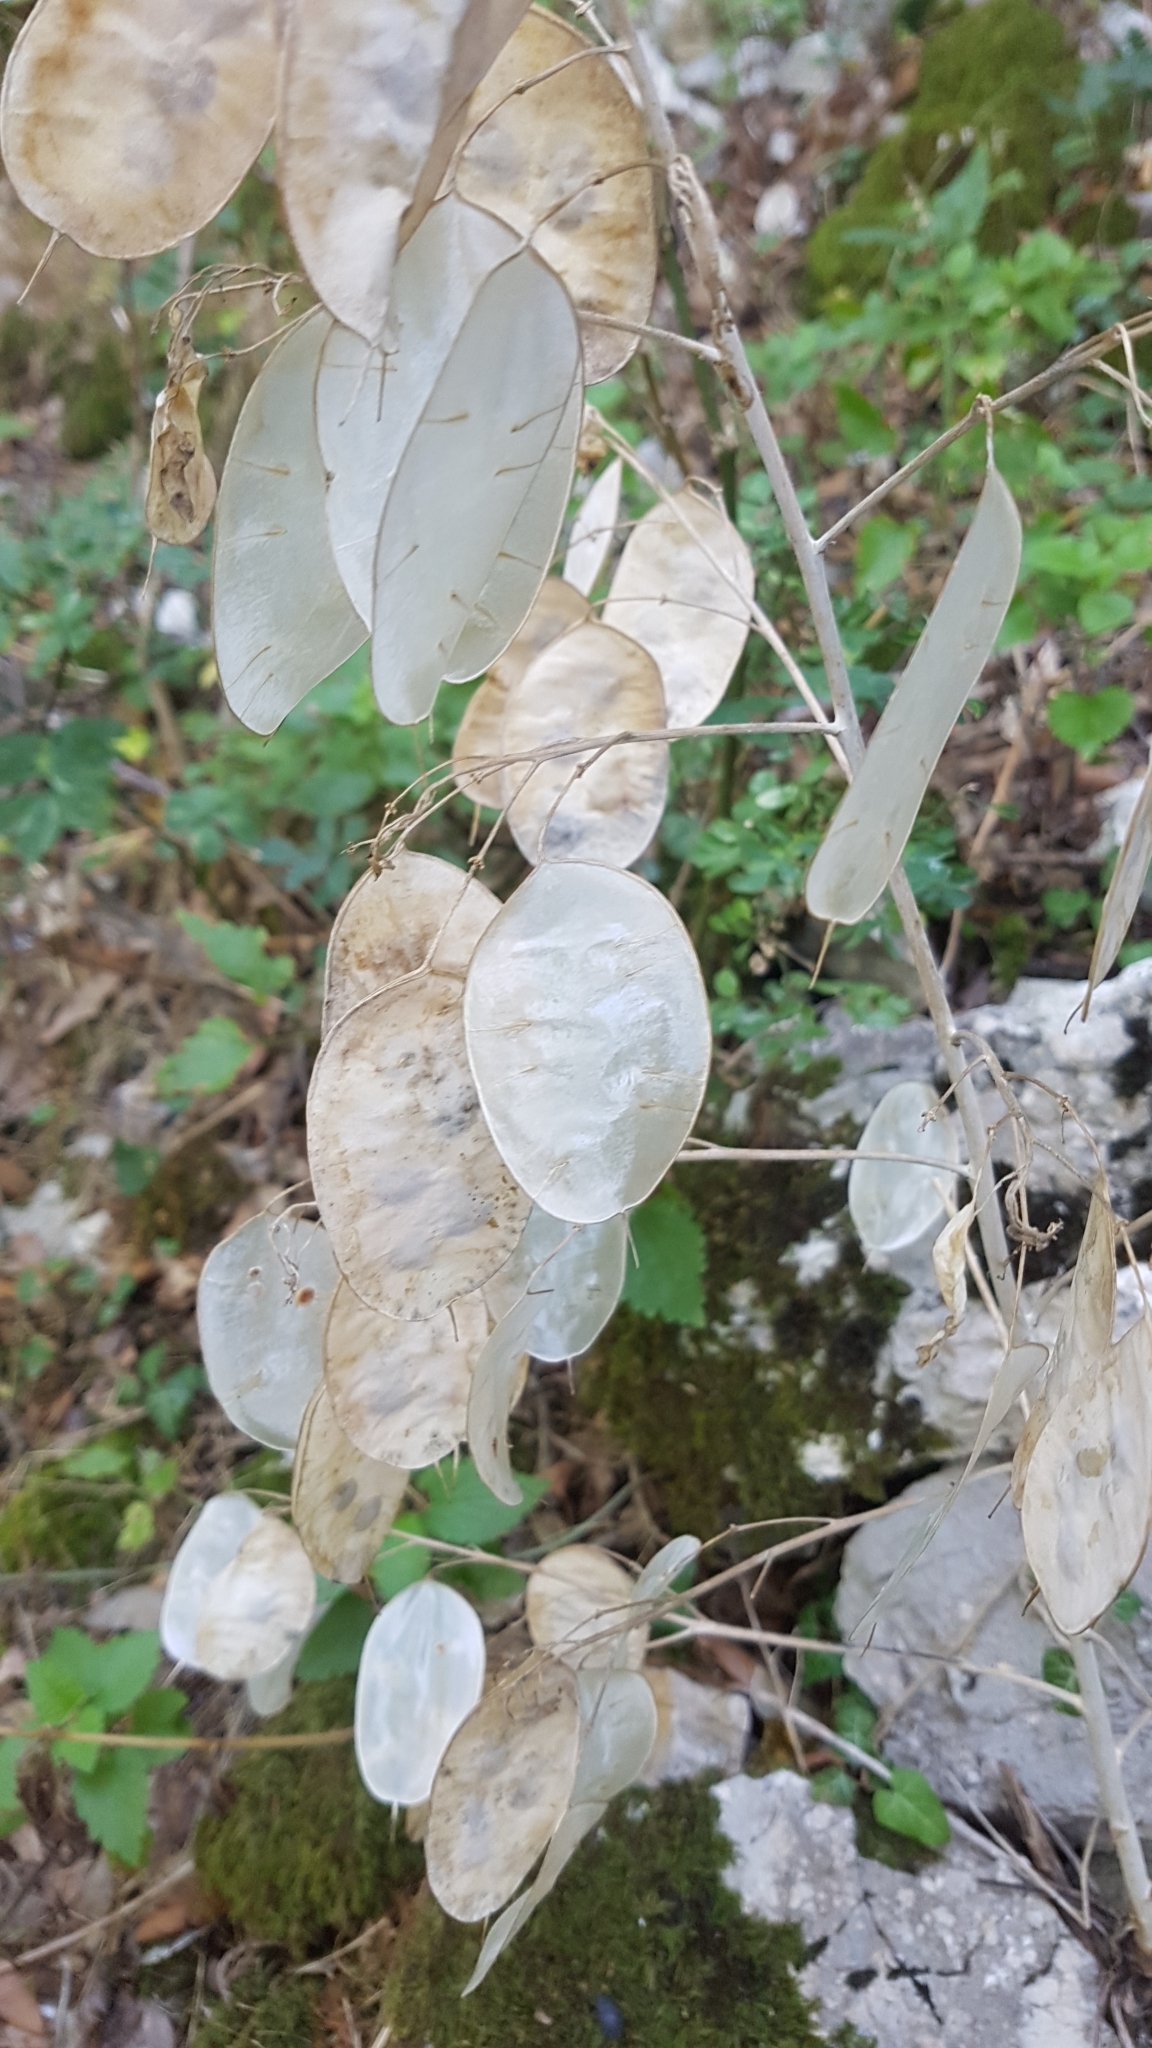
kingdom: Plantae
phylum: Tracheophyta
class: Magnoliopsida
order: Brassicales
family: Brassicaceae
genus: Lunaria
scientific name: Lunaria annua
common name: Honesty
